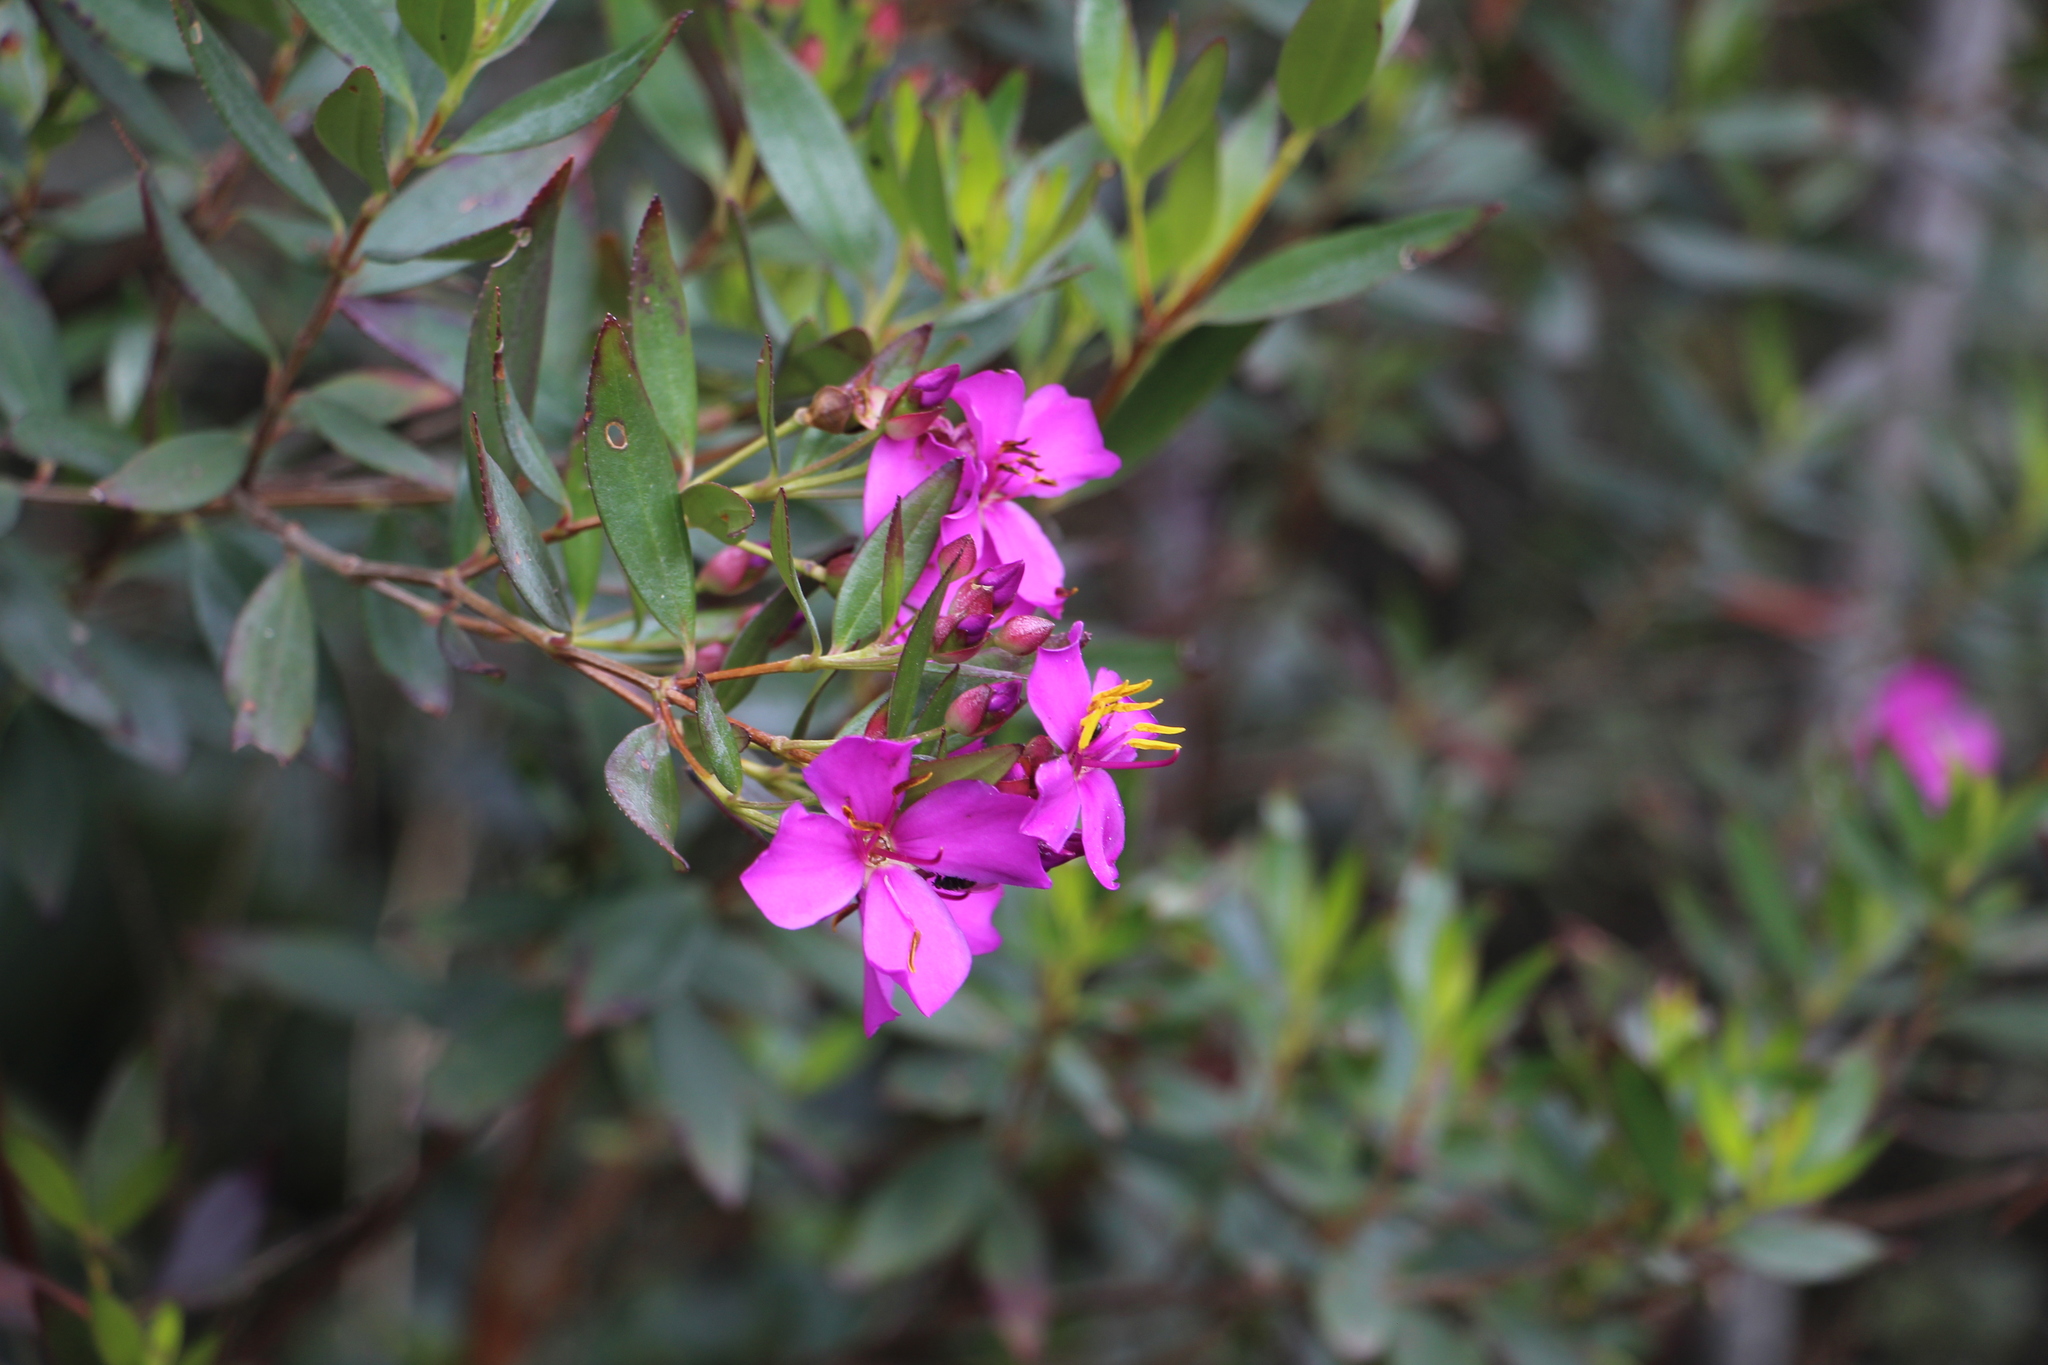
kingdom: Plantae
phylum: Tracheophyta
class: Magnoliopsida
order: Myrtales
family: Melastomataceae
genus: Bucquetia
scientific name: Bucquetia glutinosa
